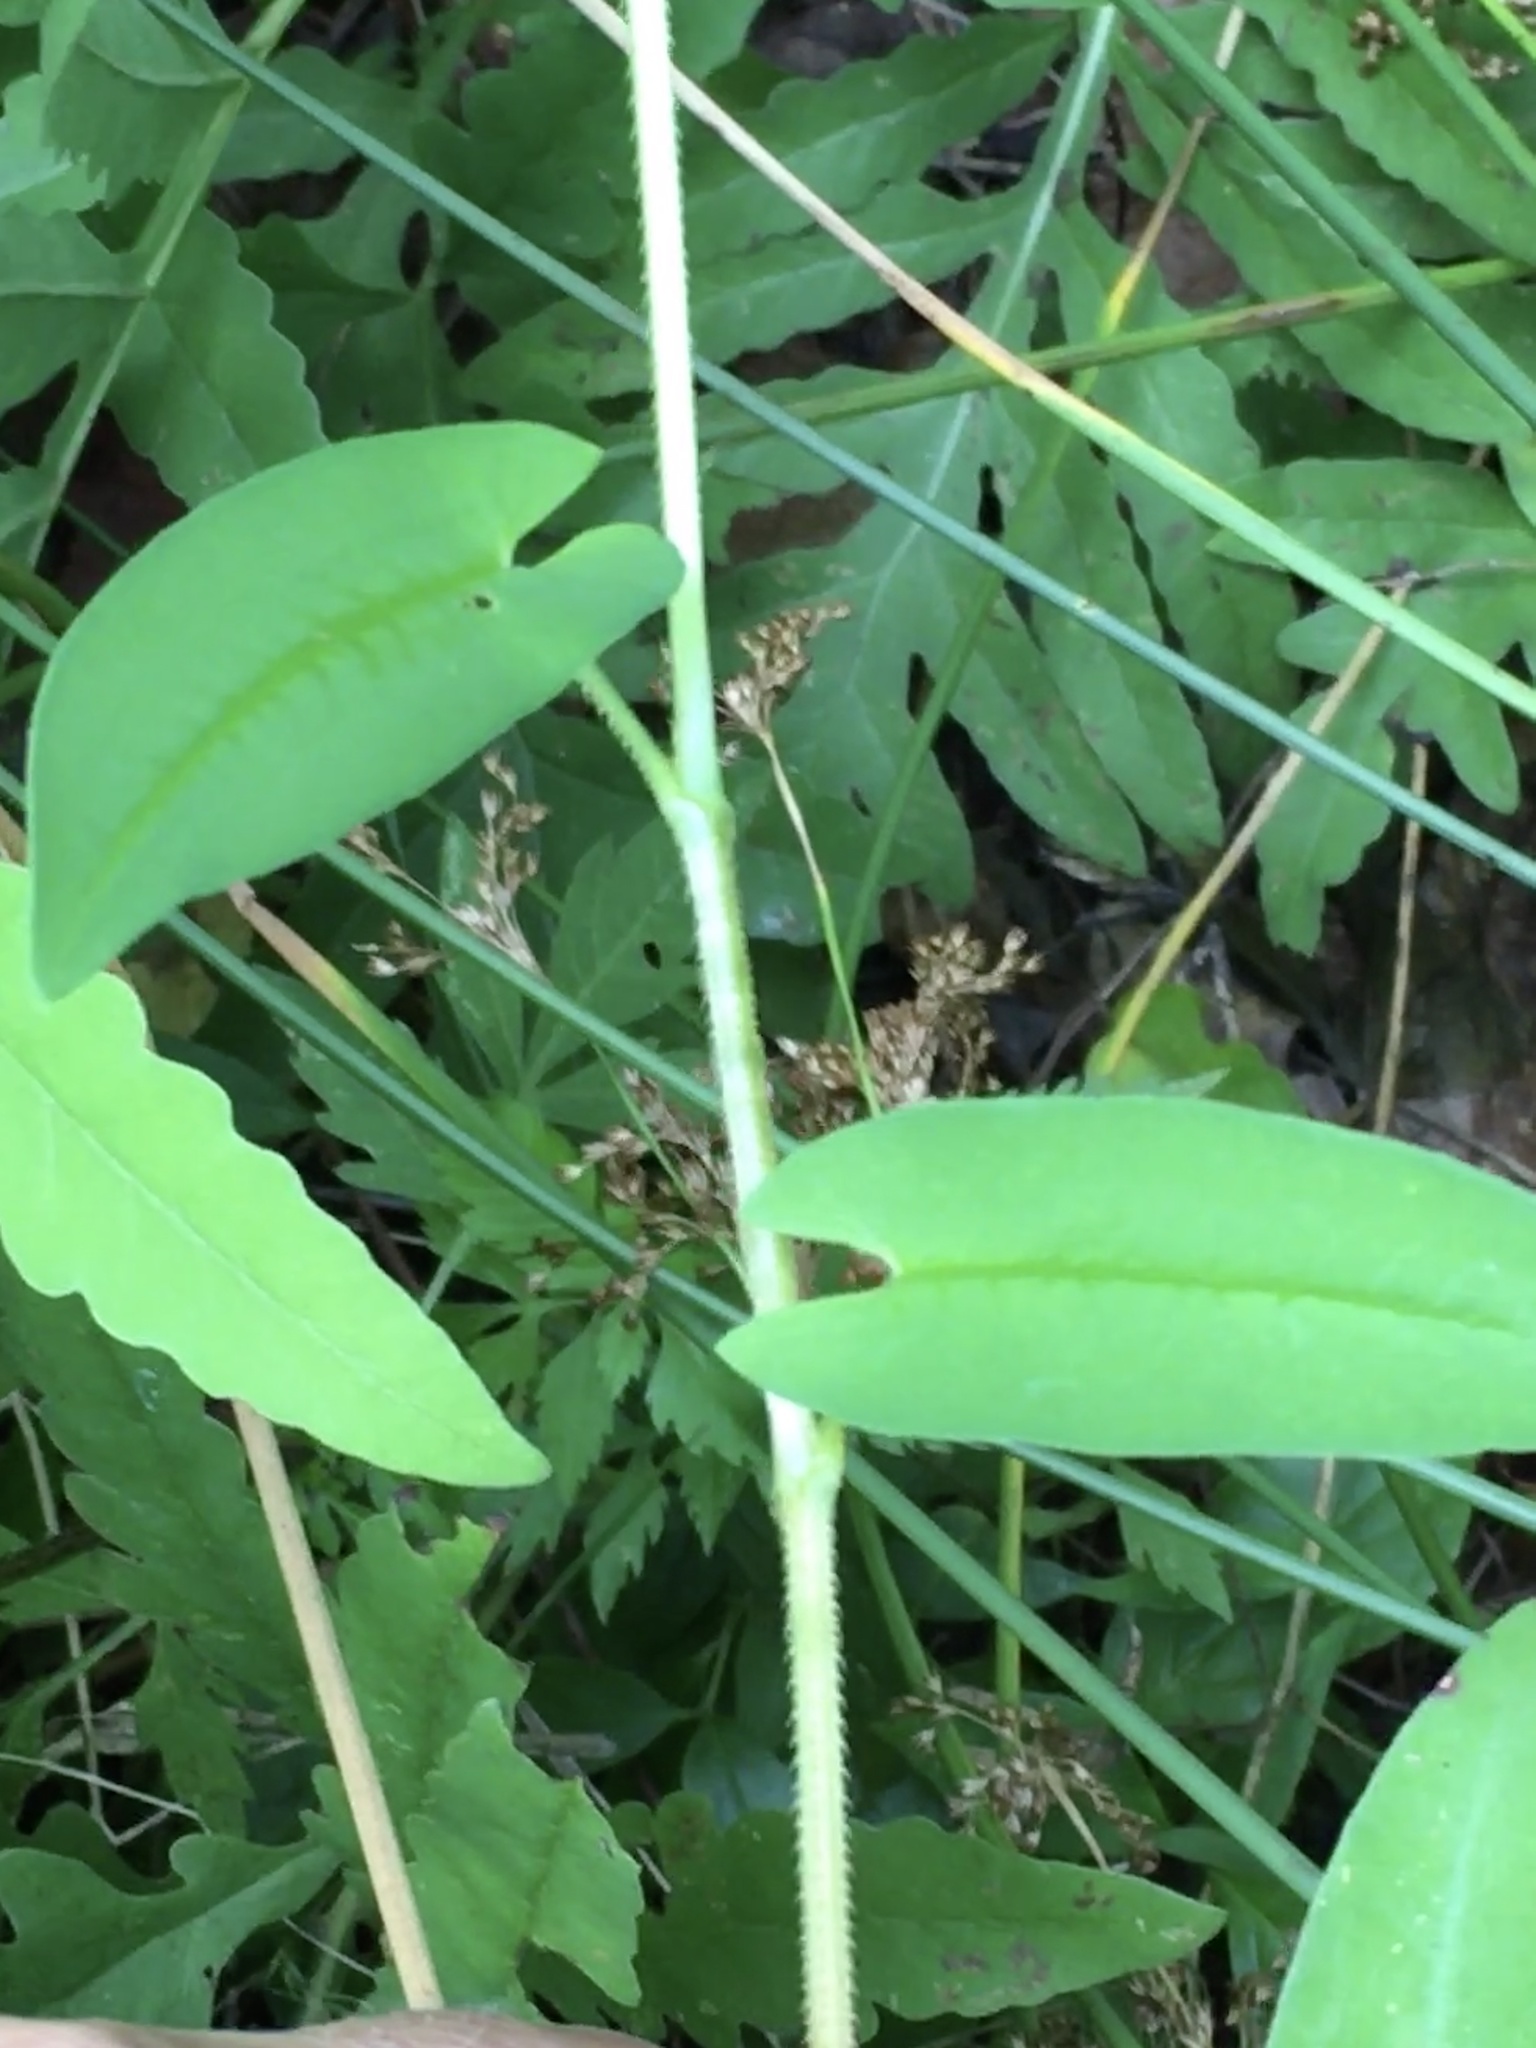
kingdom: Plantae
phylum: Tracheophyta
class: Magnoliopsida
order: Caryophyllales
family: Polygonaceae
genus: Persicaria
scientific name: Persicaria sagittata
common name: American tearthumb
